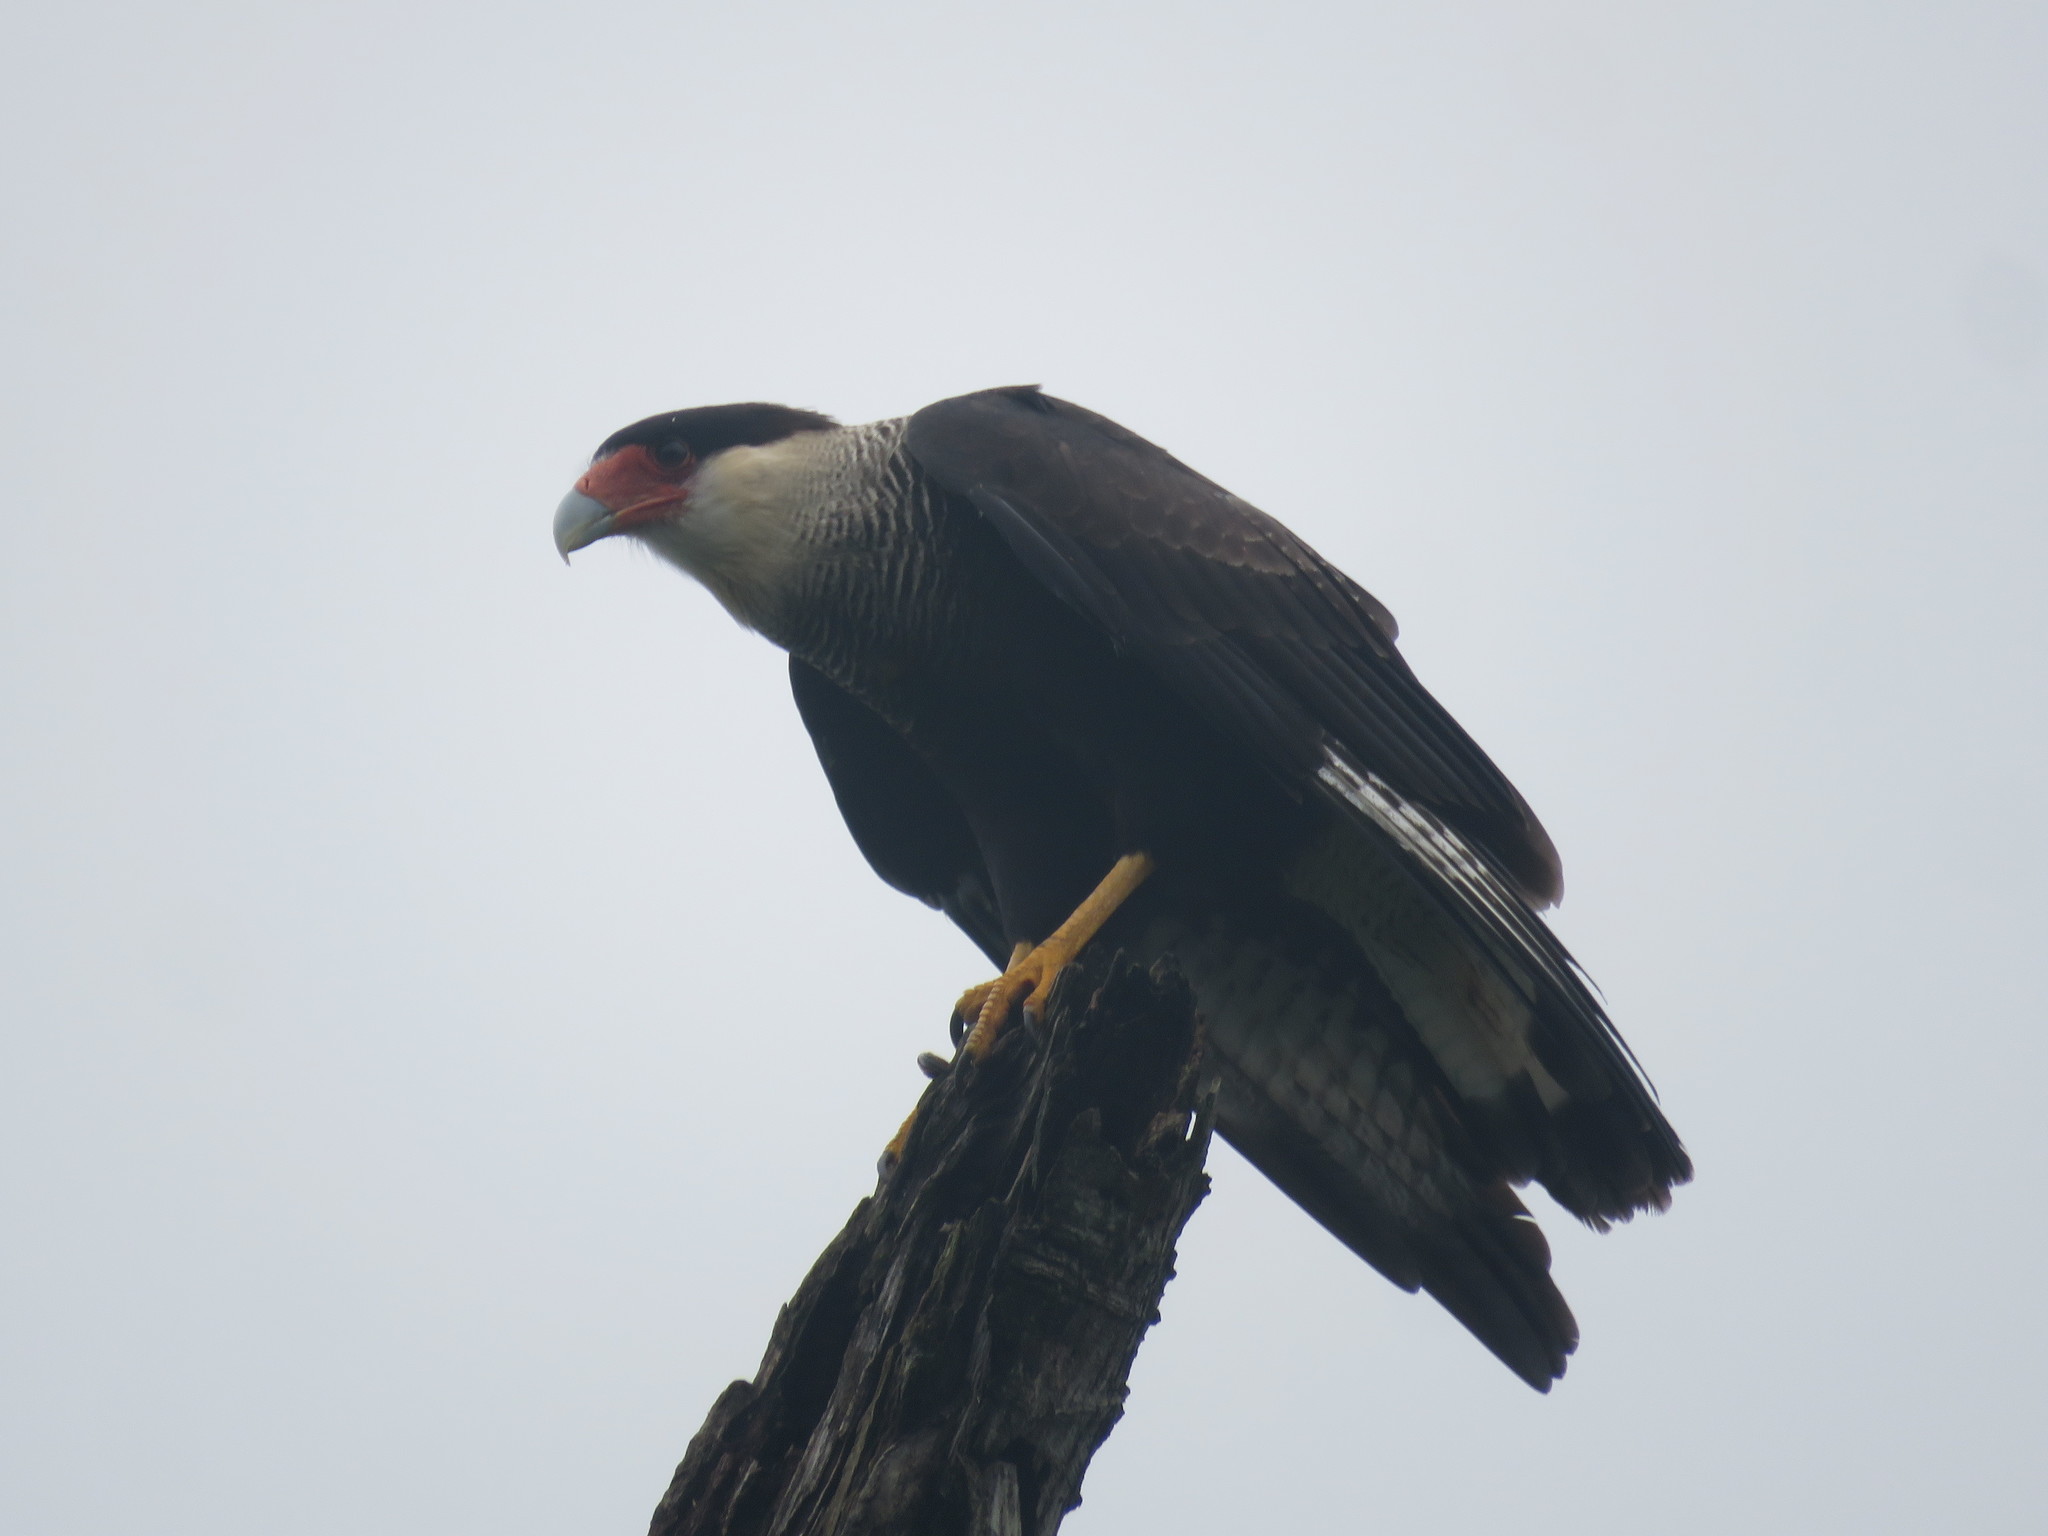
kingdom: Animalia
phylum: Chordata
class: Aves
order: Falconiformes
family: Falconidae
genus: Caracara
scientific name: Caracara plancus
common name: Southern caracara
